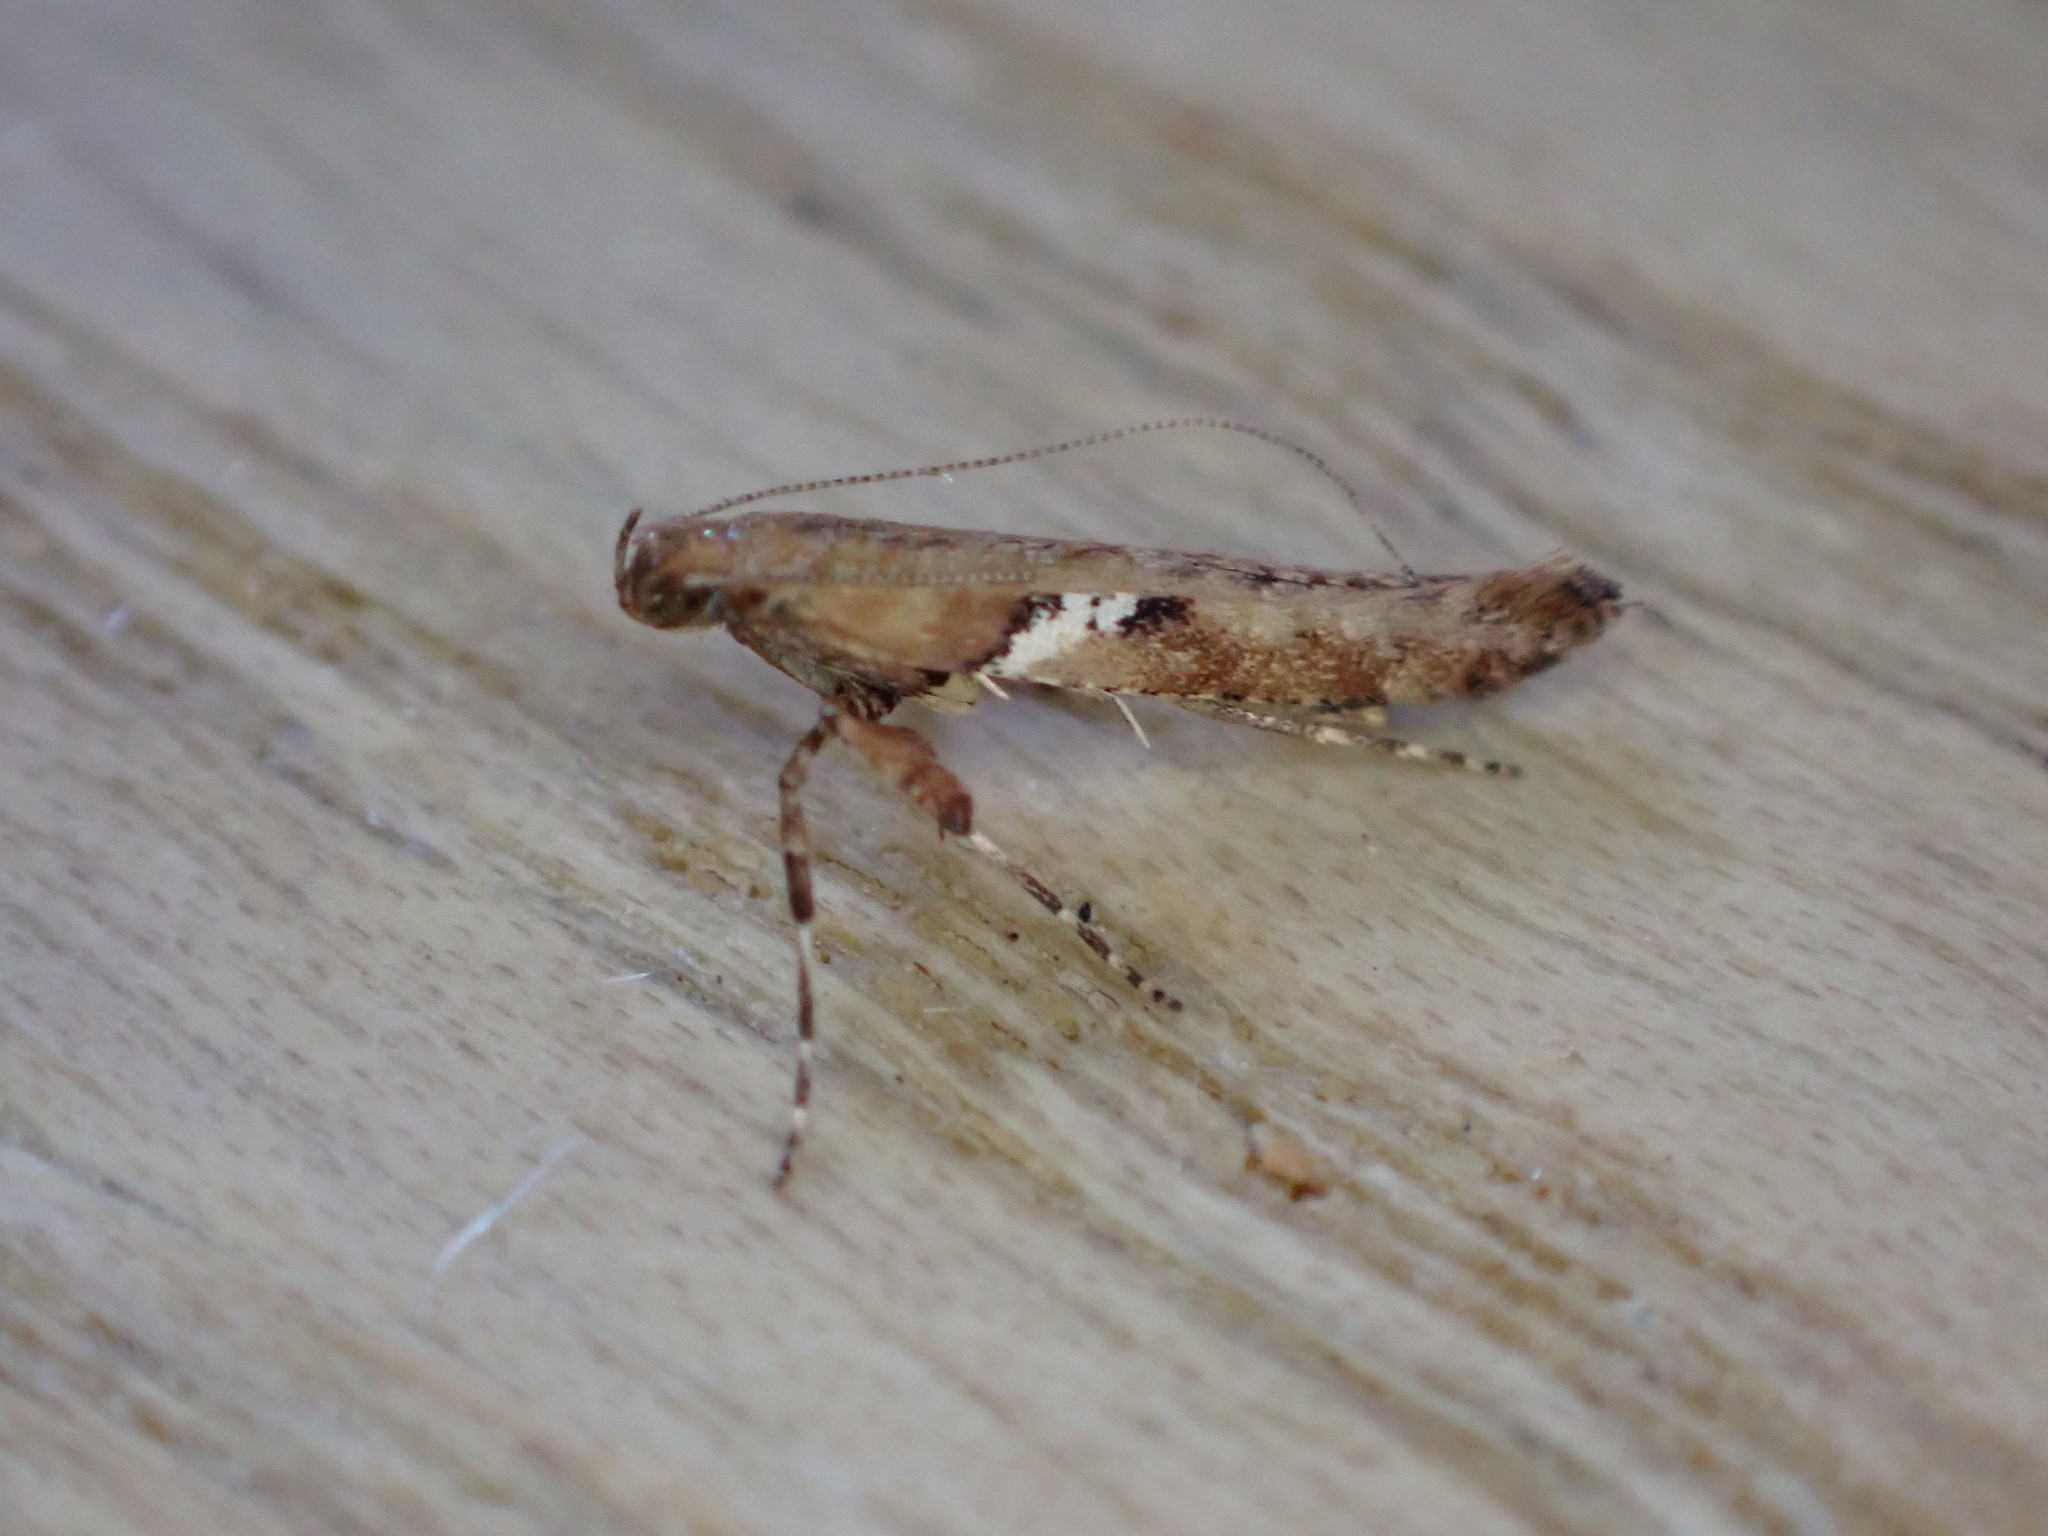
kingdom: Animalia
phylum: Arthropoda
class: Insecta
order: Lepidoptera
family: Gracillariidae
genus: Caloptilia
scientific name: Caloptilia semifascia
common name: Maple slender
